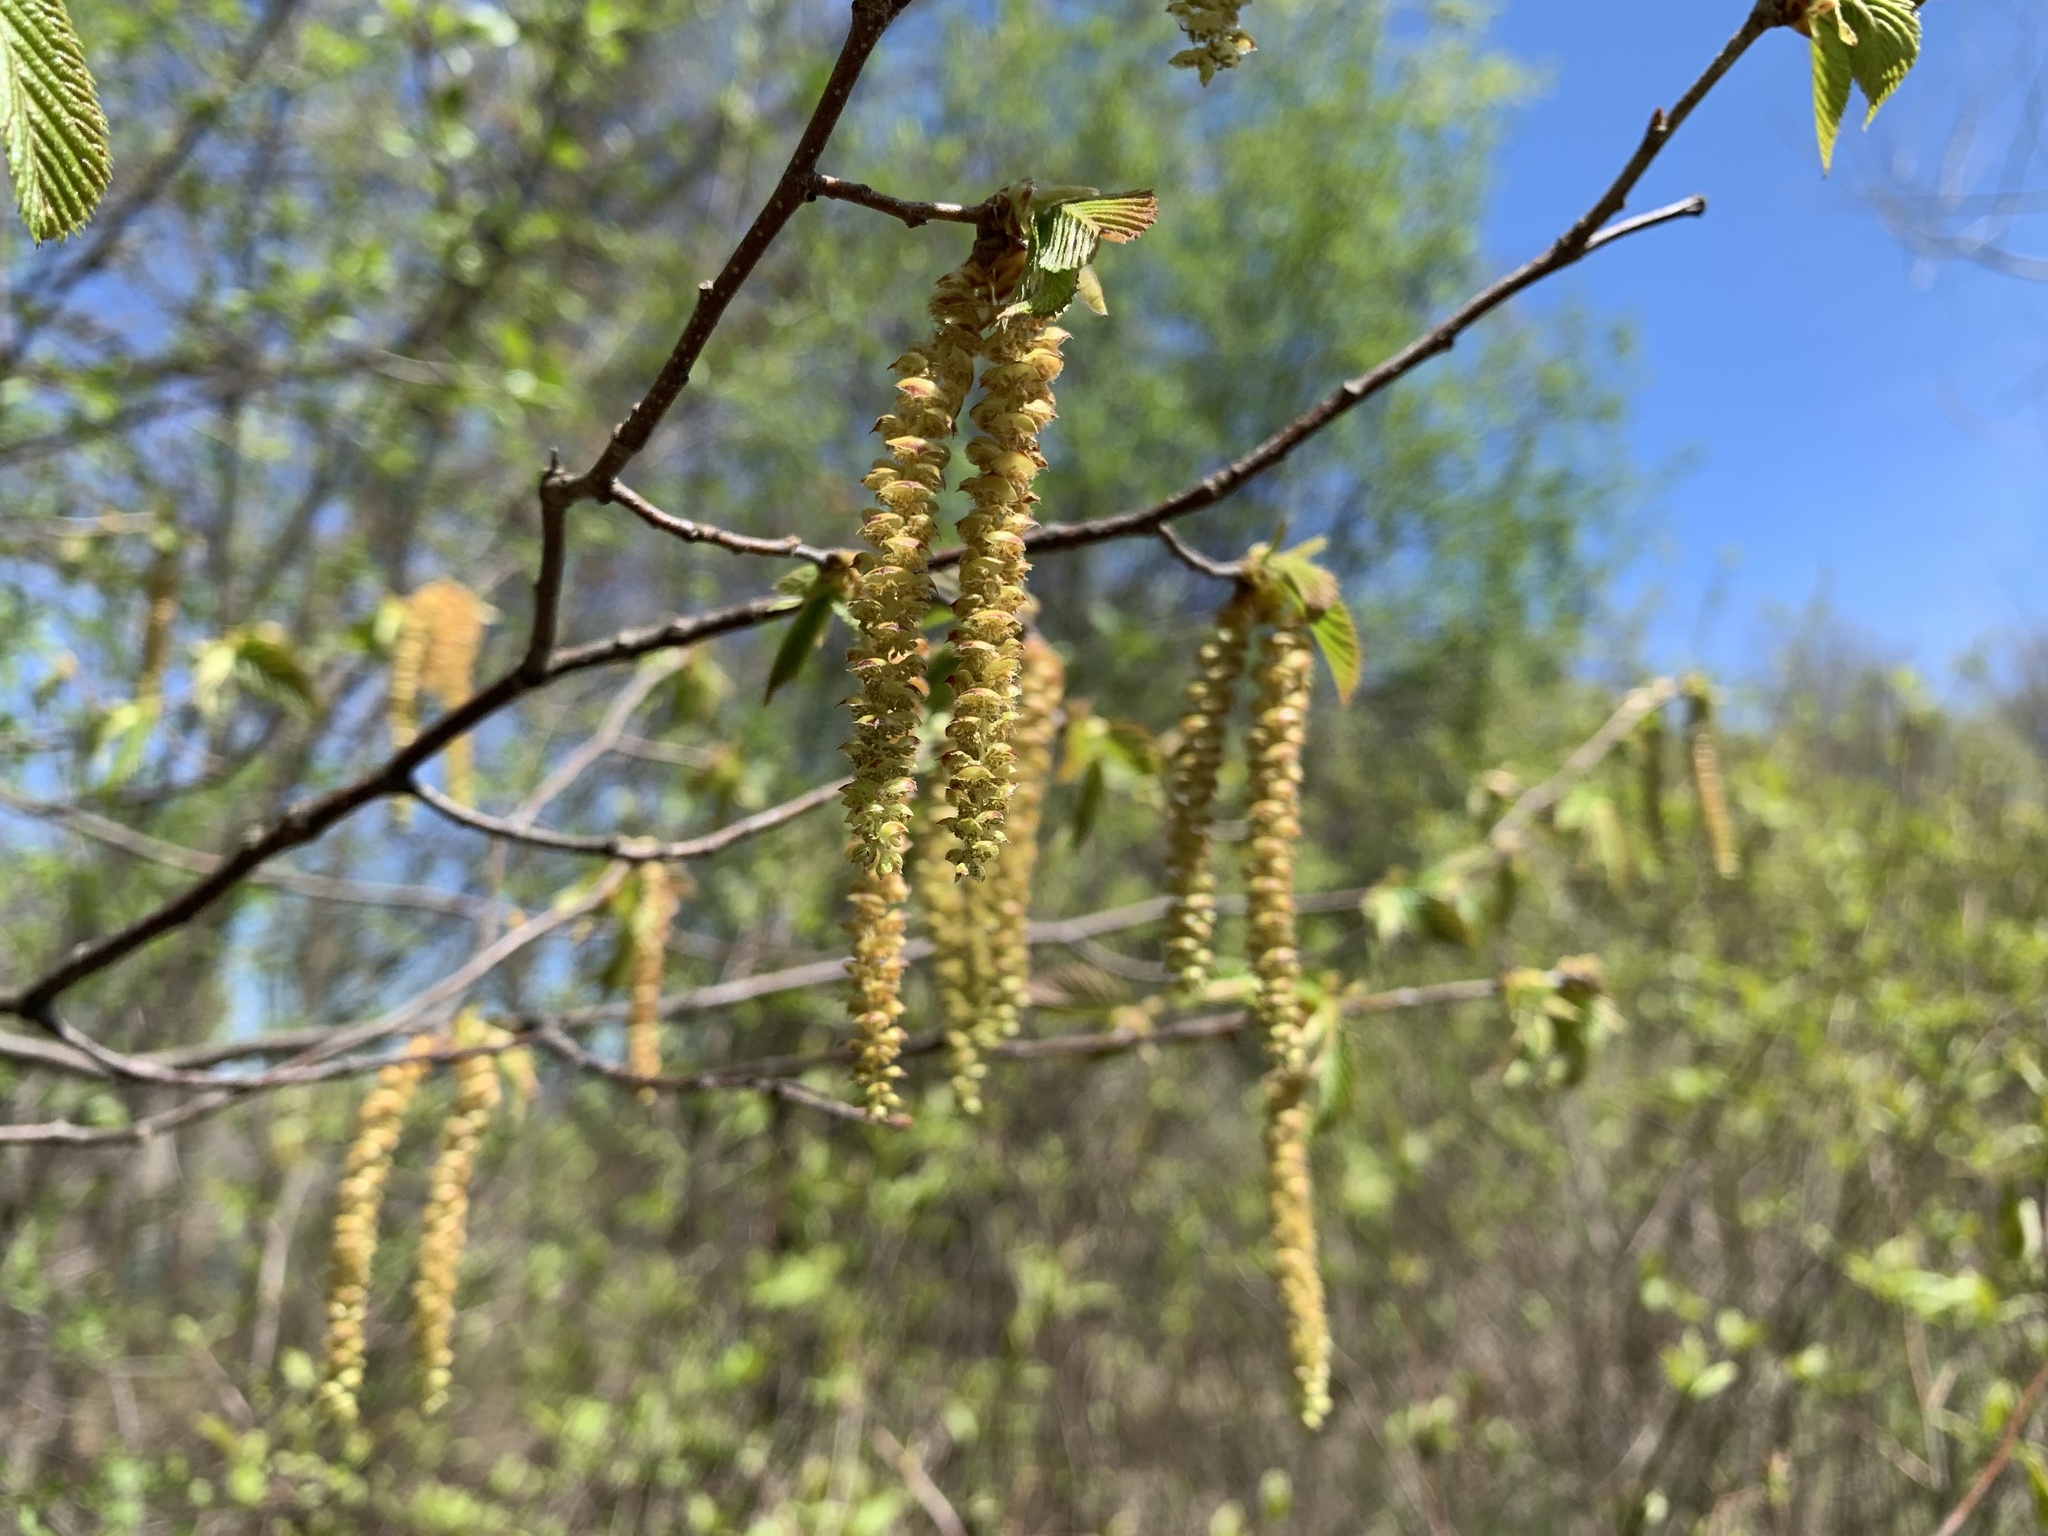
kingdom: Plantae
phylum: Tracheophyta
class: Magnoliopsida
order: Fagales
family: Betulaceae
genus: Ostrya
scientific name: Ostrya virginiana
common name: Ironwood
